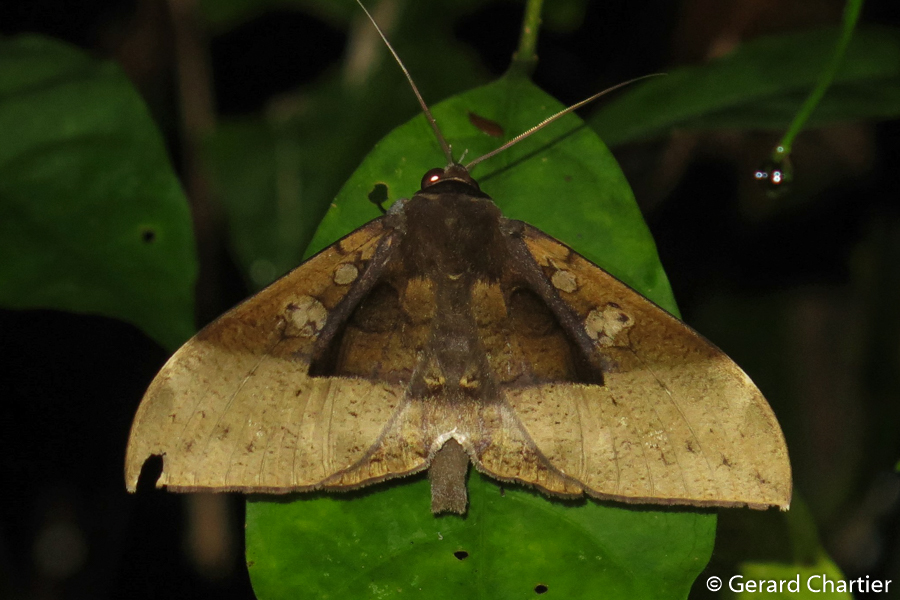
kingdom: Animalia
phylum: Arthropoda
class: Insecta
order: Lepidoptera
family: Erebidae
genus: Ischyja
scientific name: Ischyja manlia
